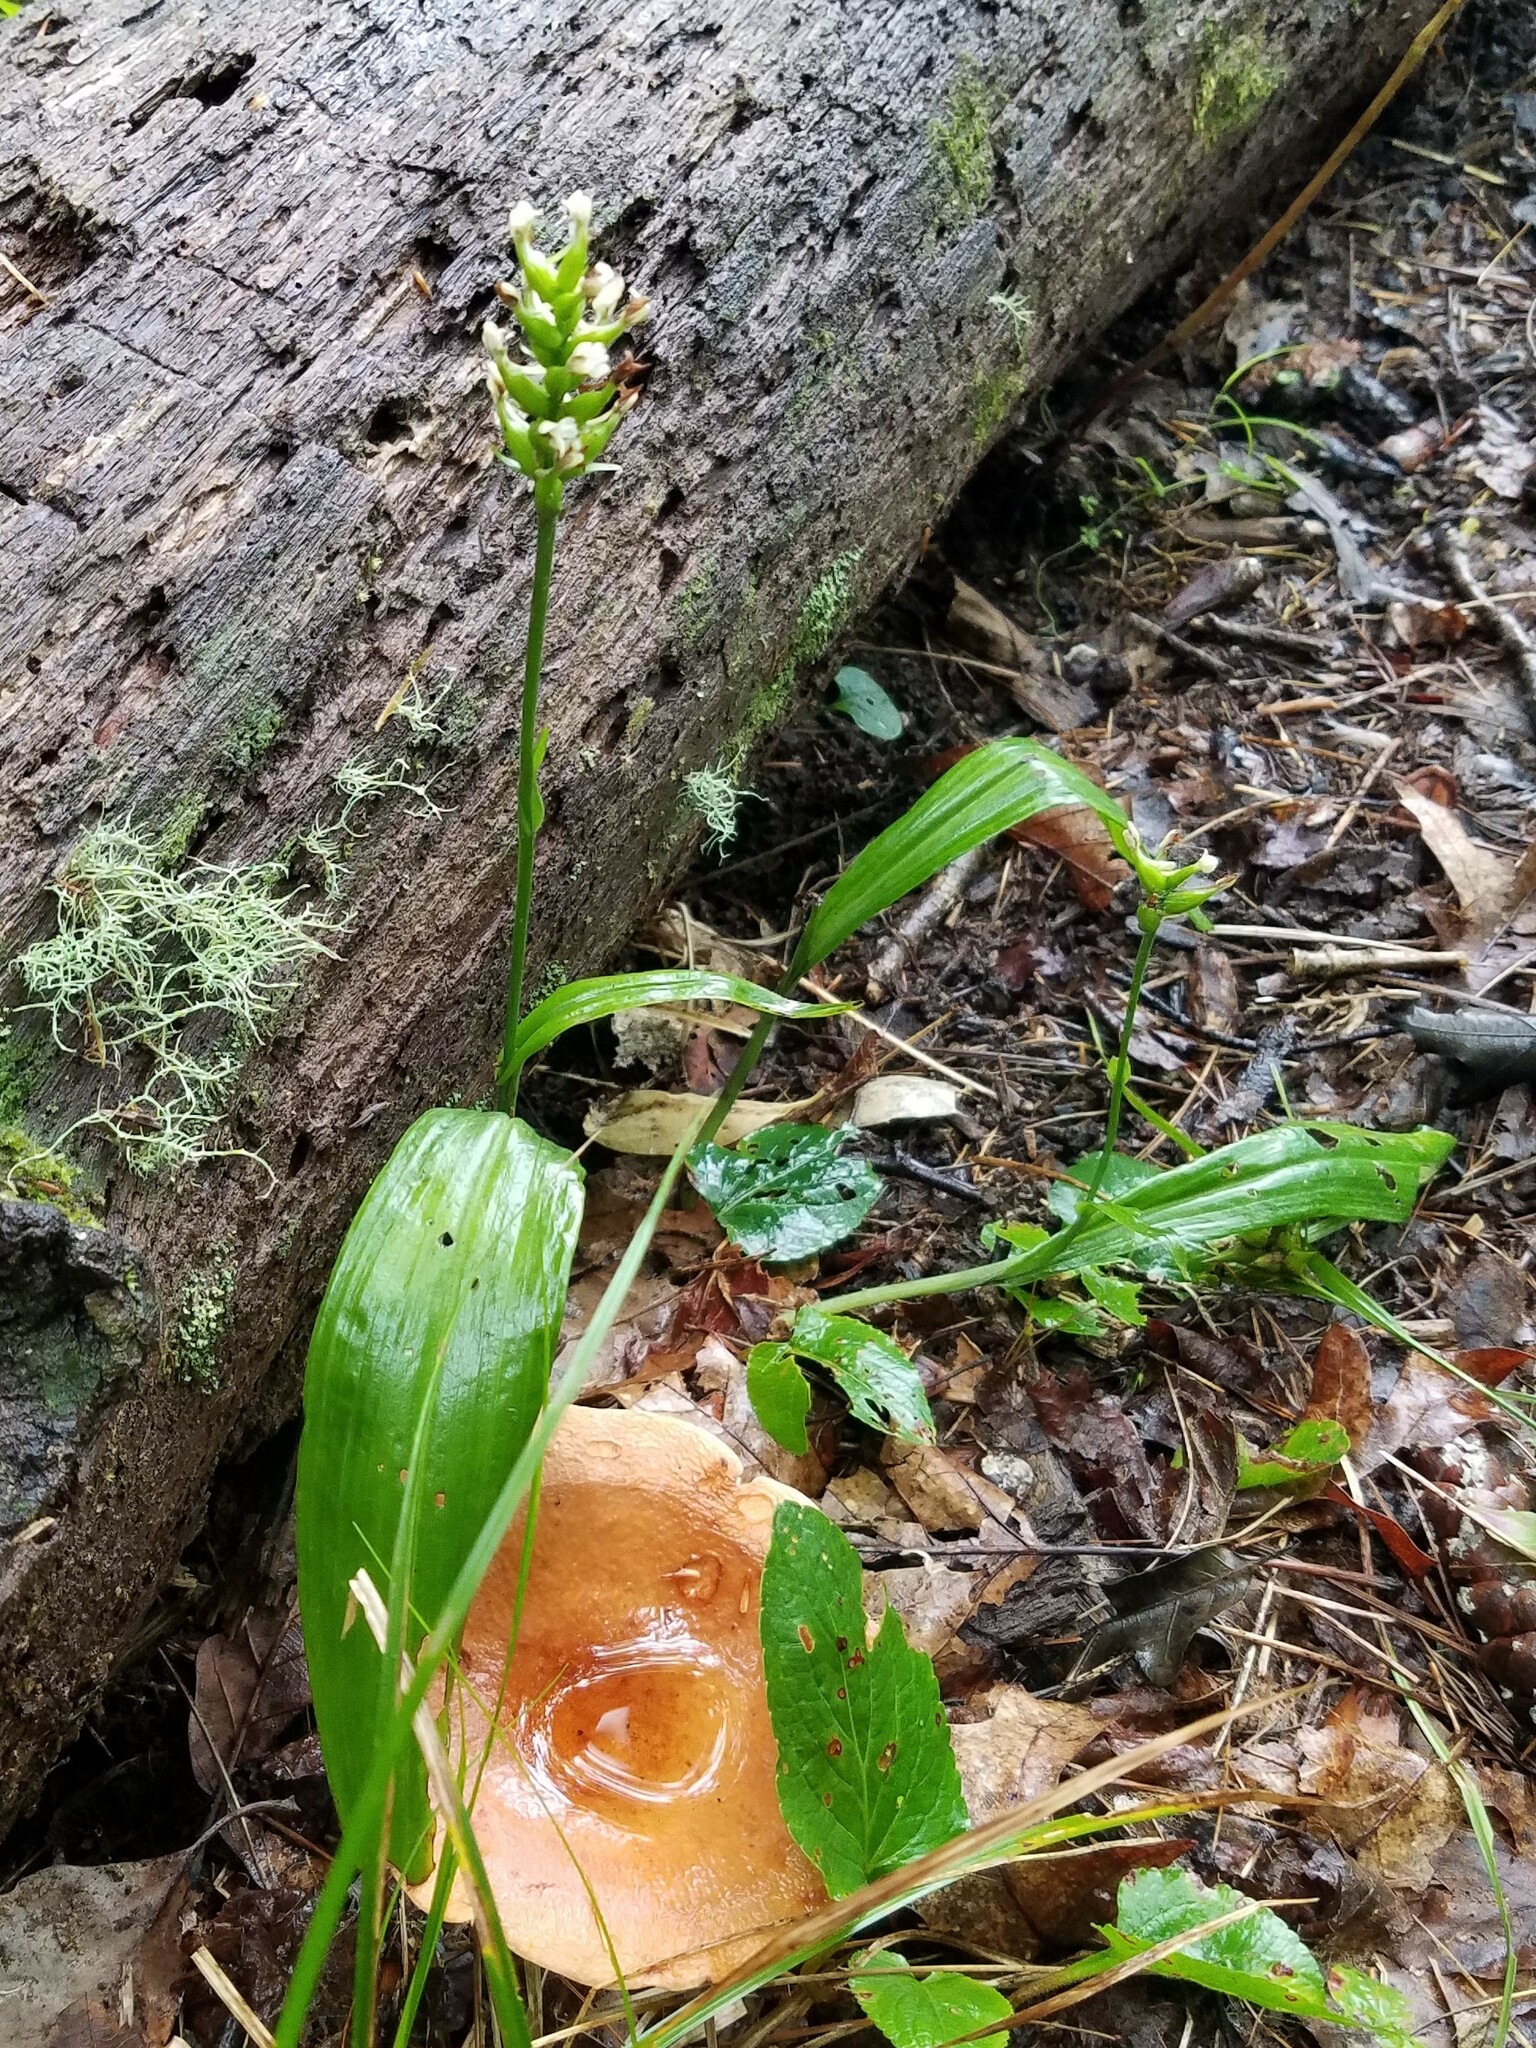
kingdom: Plantae
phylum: Tracheophyta
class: Liliopsida
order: Asparagales
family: Orchidaceae
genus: Platanthera
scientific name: Platanthera clavellata
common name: Club-spur orchid
